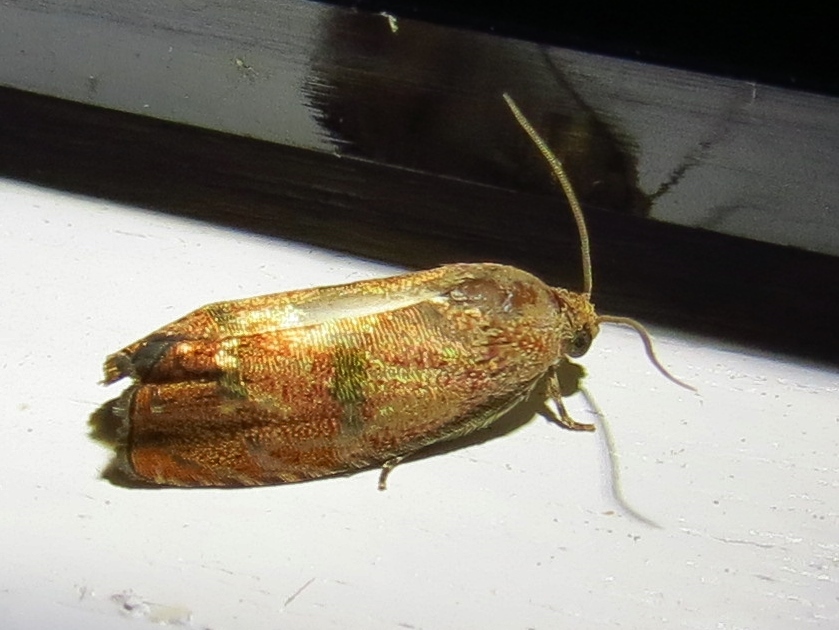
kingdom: Animalia
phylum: Arthropoda
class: Insecta
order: Lepidoptera
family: Tortricidae
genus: Cydia
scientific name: Cydia latiferreana
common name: Filbertworm moth
